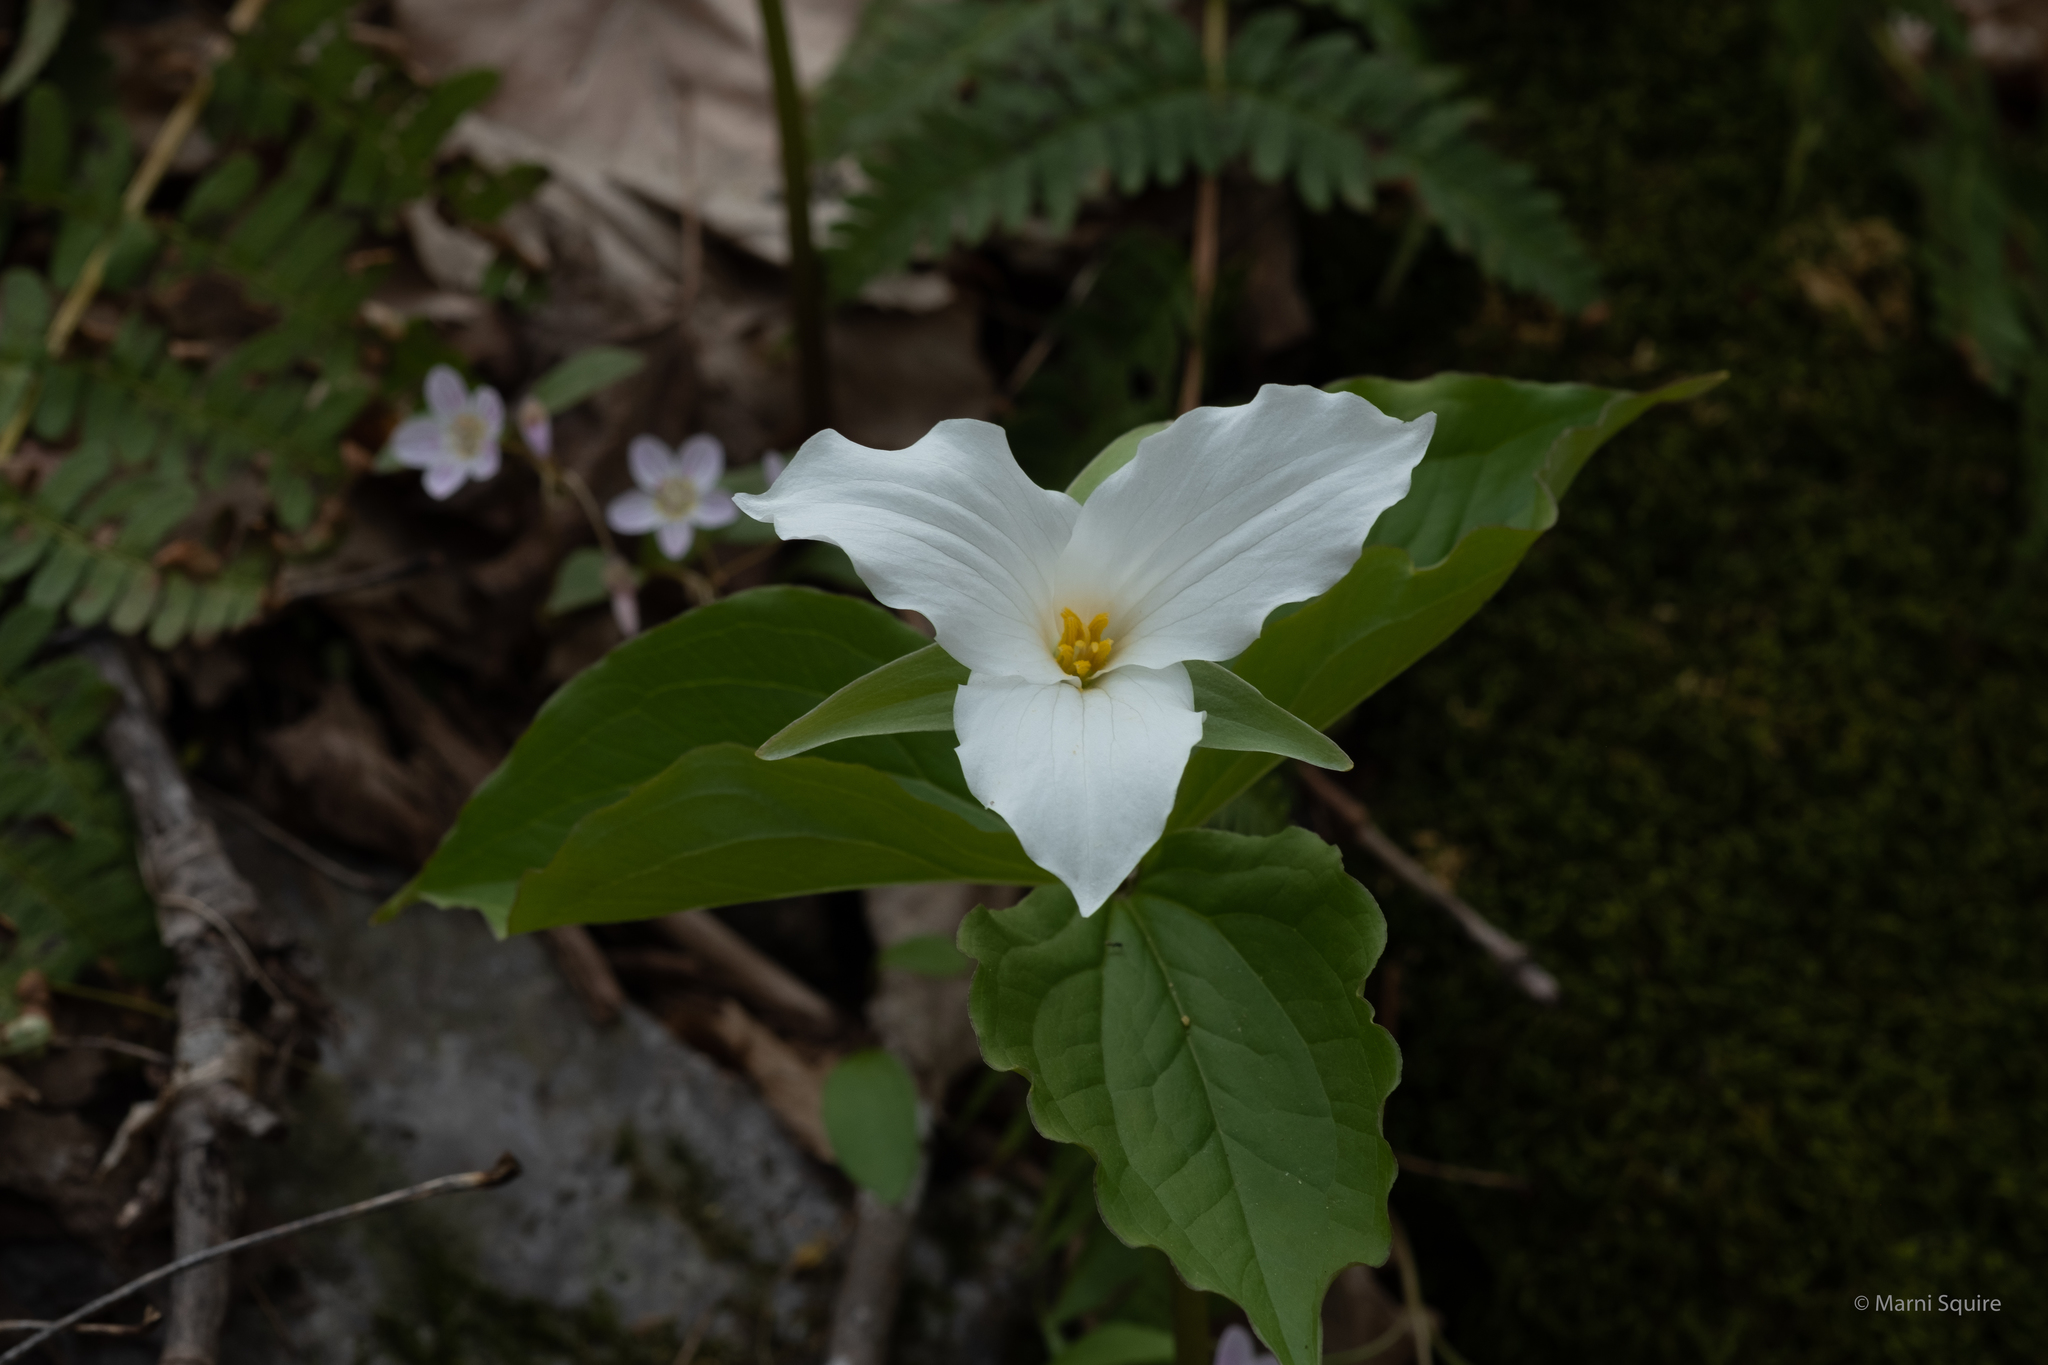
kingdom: Plantae
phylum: Tracheophyta
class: Liliopsida
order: Liliales
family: Melanthiaceae
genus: Trillium
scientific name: Trillium grandiflorum
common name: Great white trillium
